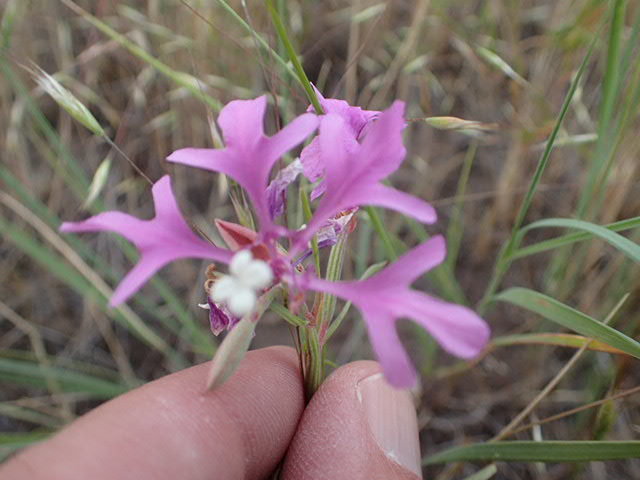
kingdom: Plantae
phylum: Tracheophyta
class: Magnoliopsida
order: Myrtales
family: Onagraceae
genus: Clarkia
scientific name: Clarkia pulchella
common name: Deer horn
